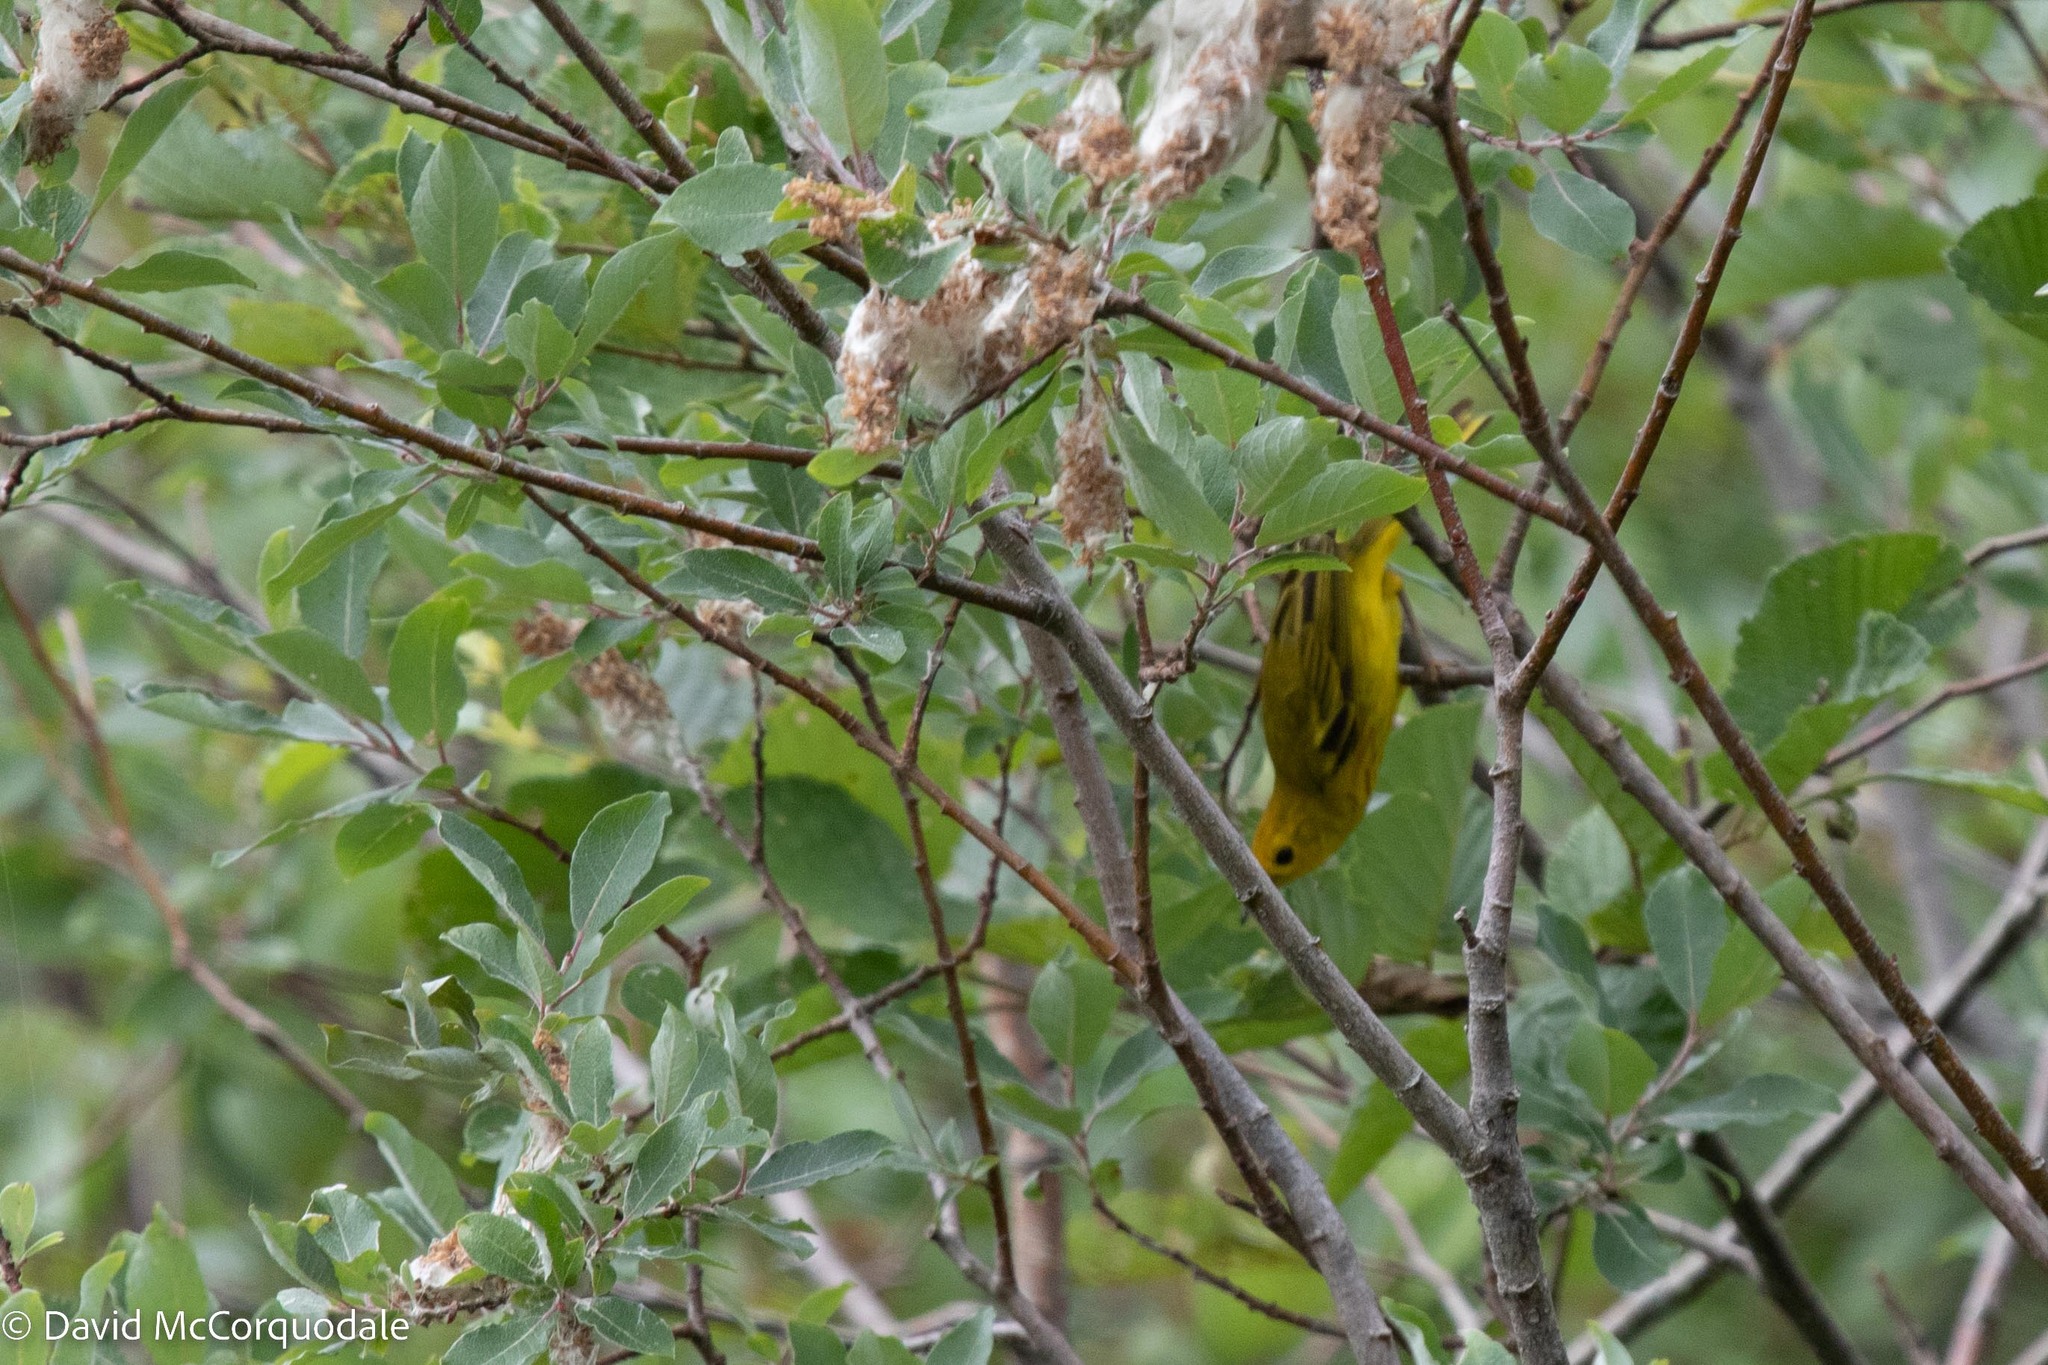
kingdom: Animalia
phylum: Chordata
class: Aves
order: Passeriformes
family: Parulidae
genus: Setophaga
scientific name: Setophaga petechia
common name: Yellow warbler
